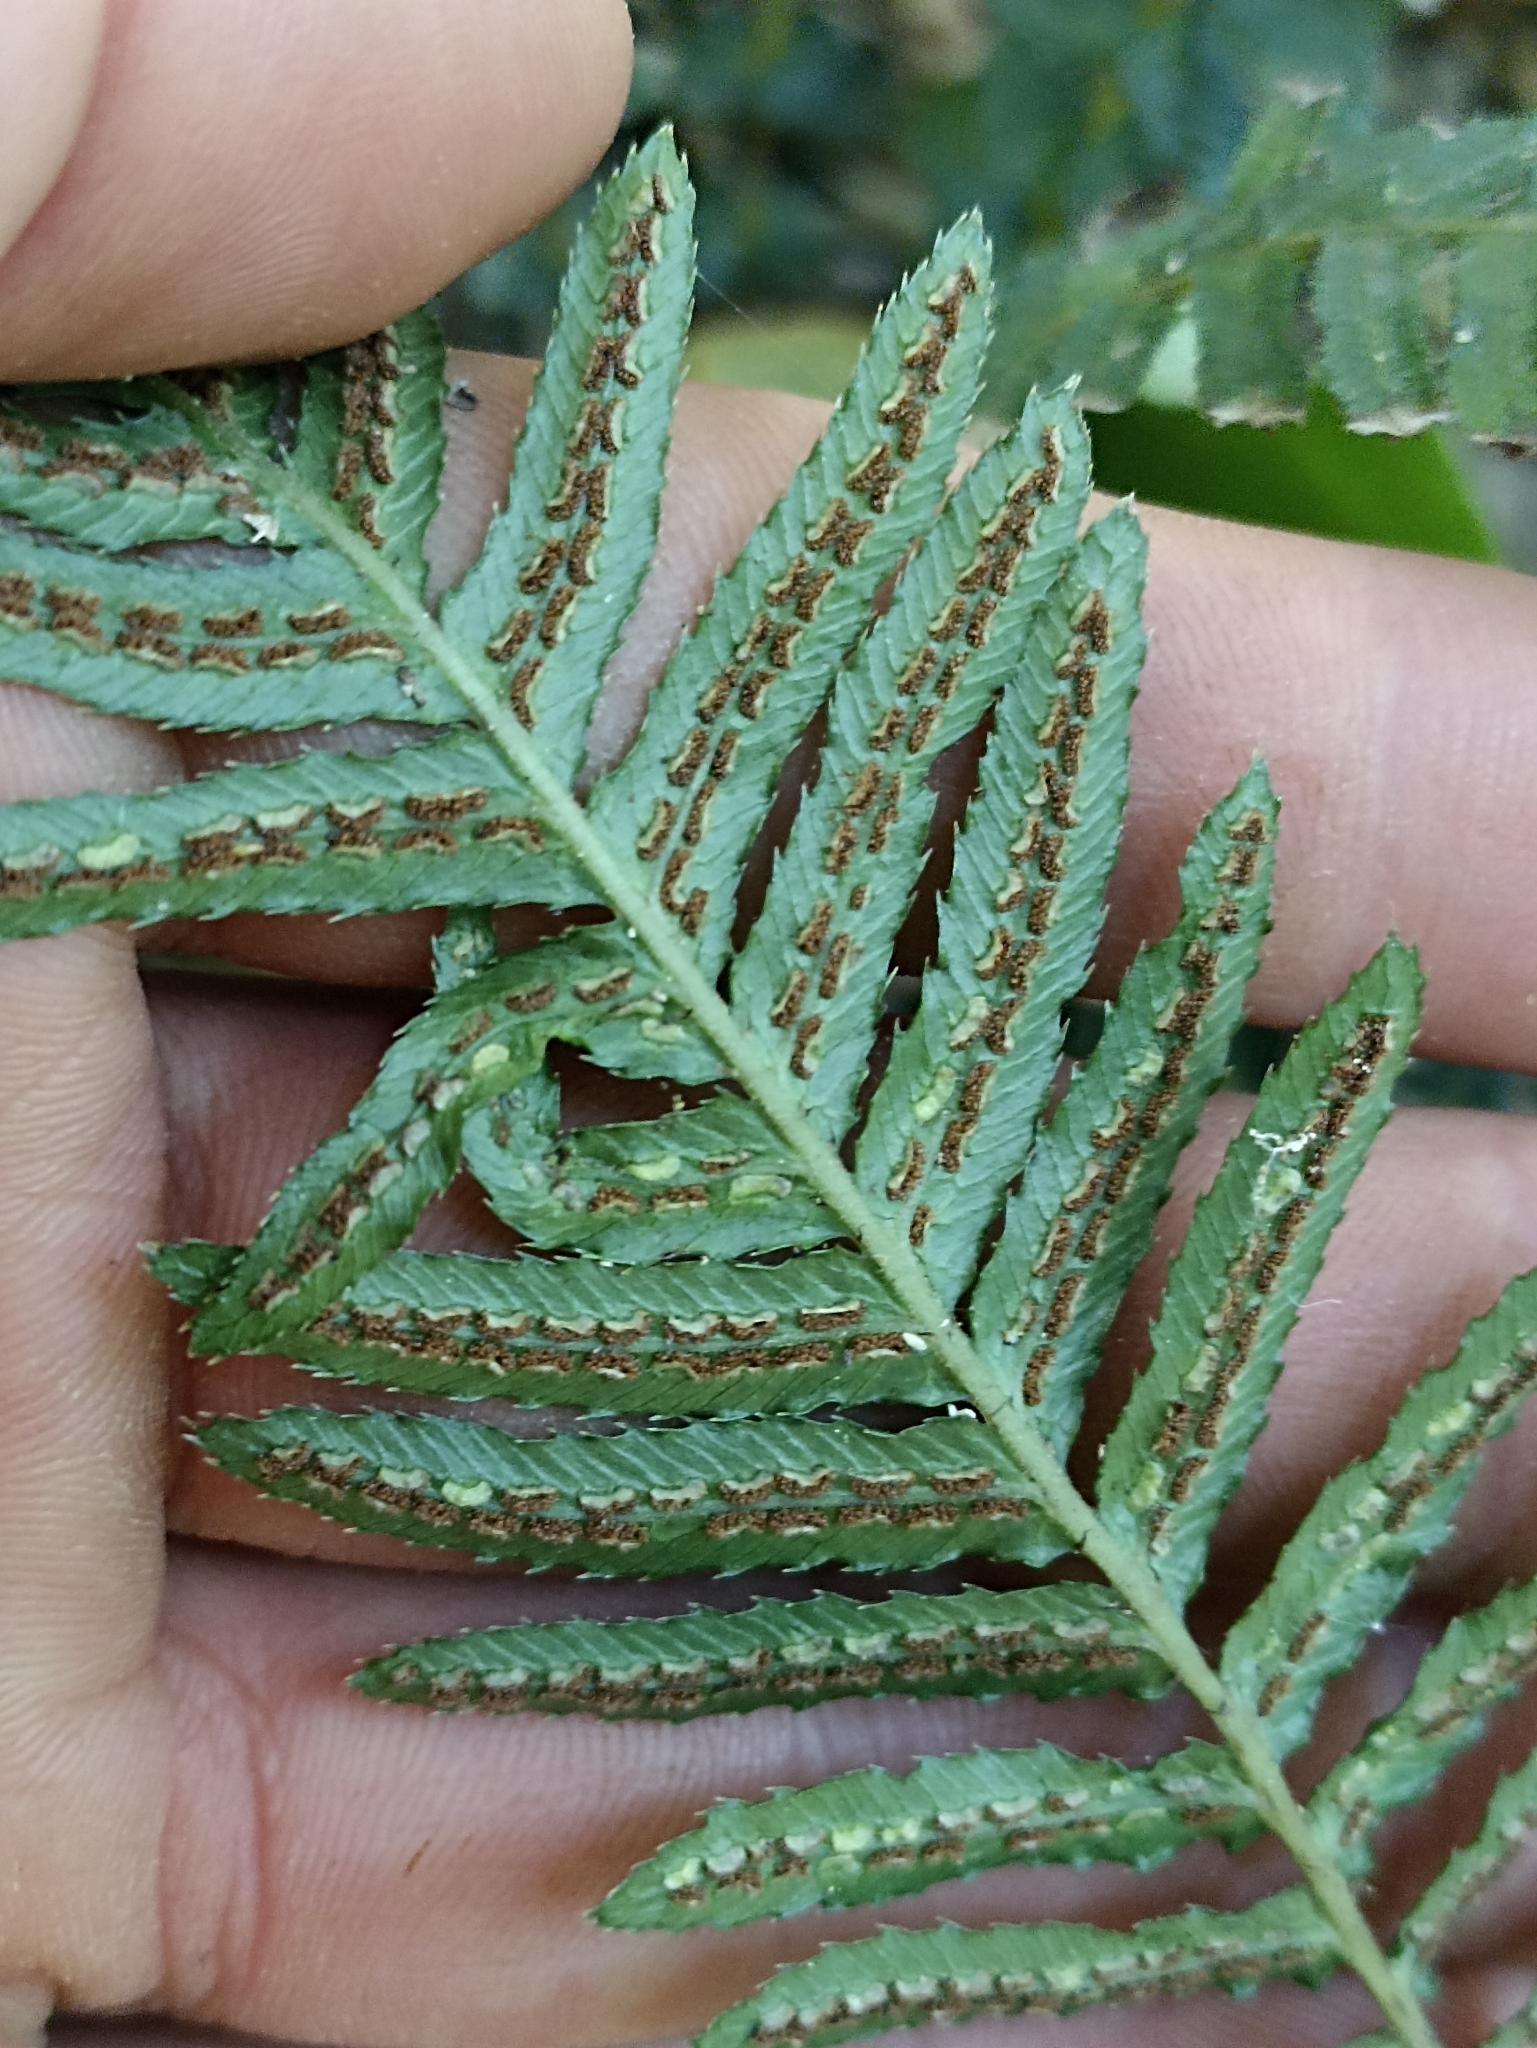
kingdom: Plantae
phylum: Tracheophyta
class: Polypodiopsida
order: Polypodiales
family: Blechnaceae
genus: Doodia
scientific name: Doodia australis
